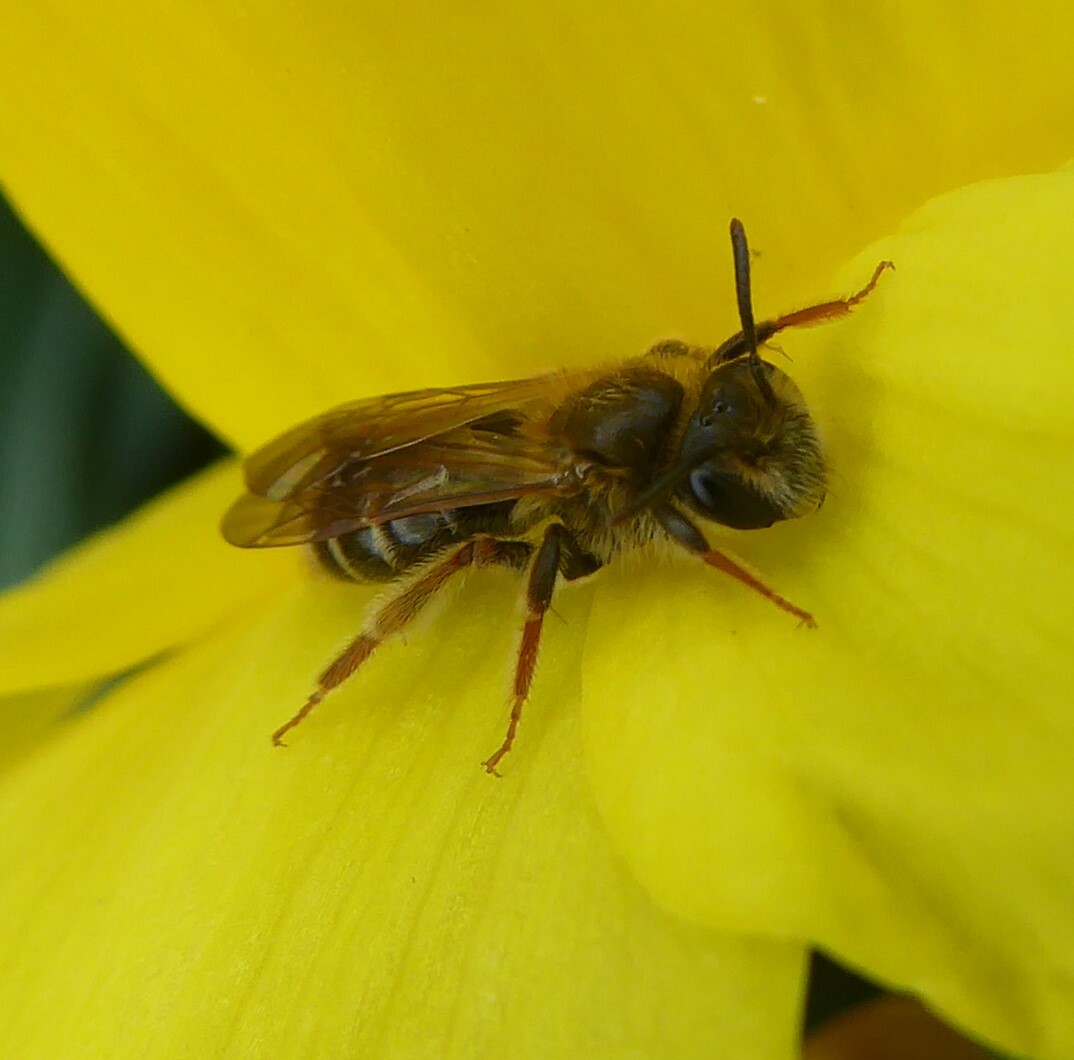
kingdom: Animalia
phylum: Arthropoda
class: Insecta
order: Hymenoptera
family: Andrenidae
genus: Andrena
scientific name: Andrena dorsata
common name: Short-fringed mining bee
